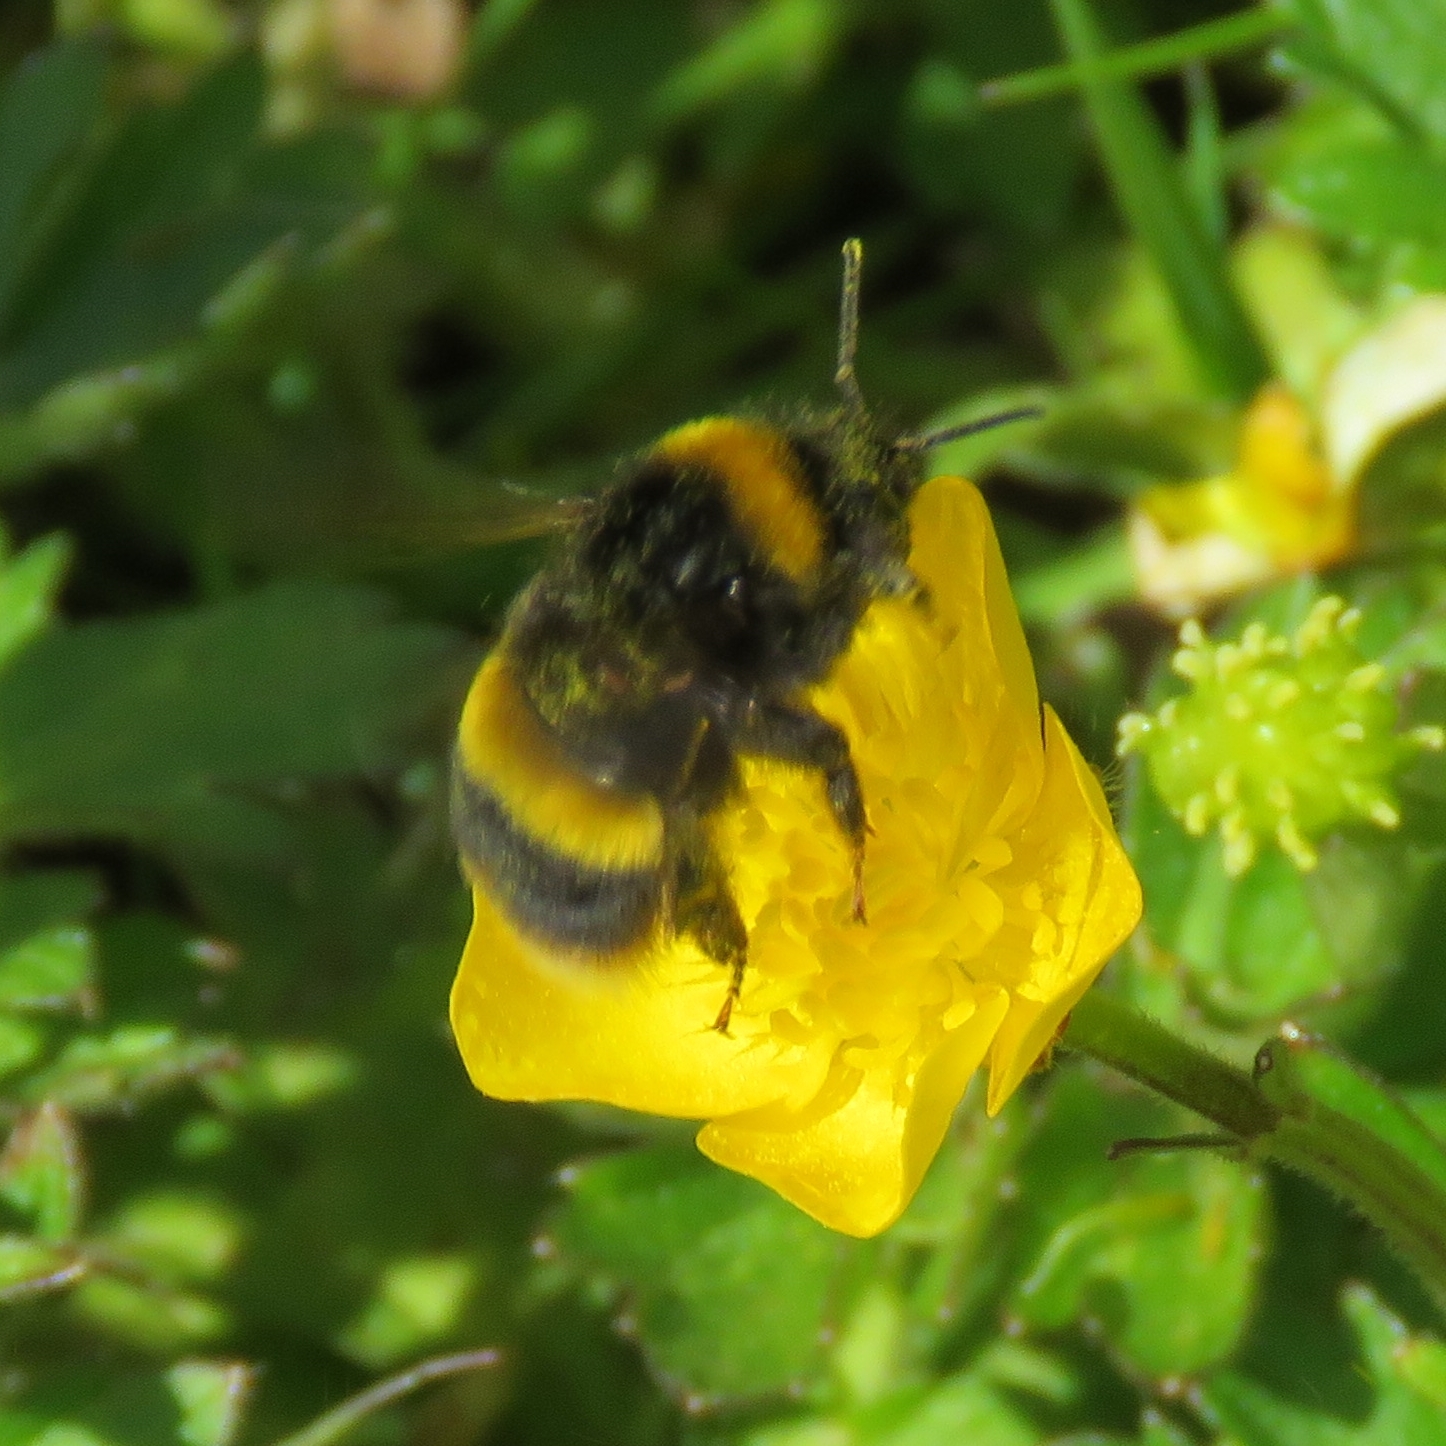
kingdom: Animalia
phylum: Arthropoda
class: Insecta
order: Hymenoptera
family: Apidae
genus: Bombus
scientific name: Bombus pratorum
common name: Early humble-bee
